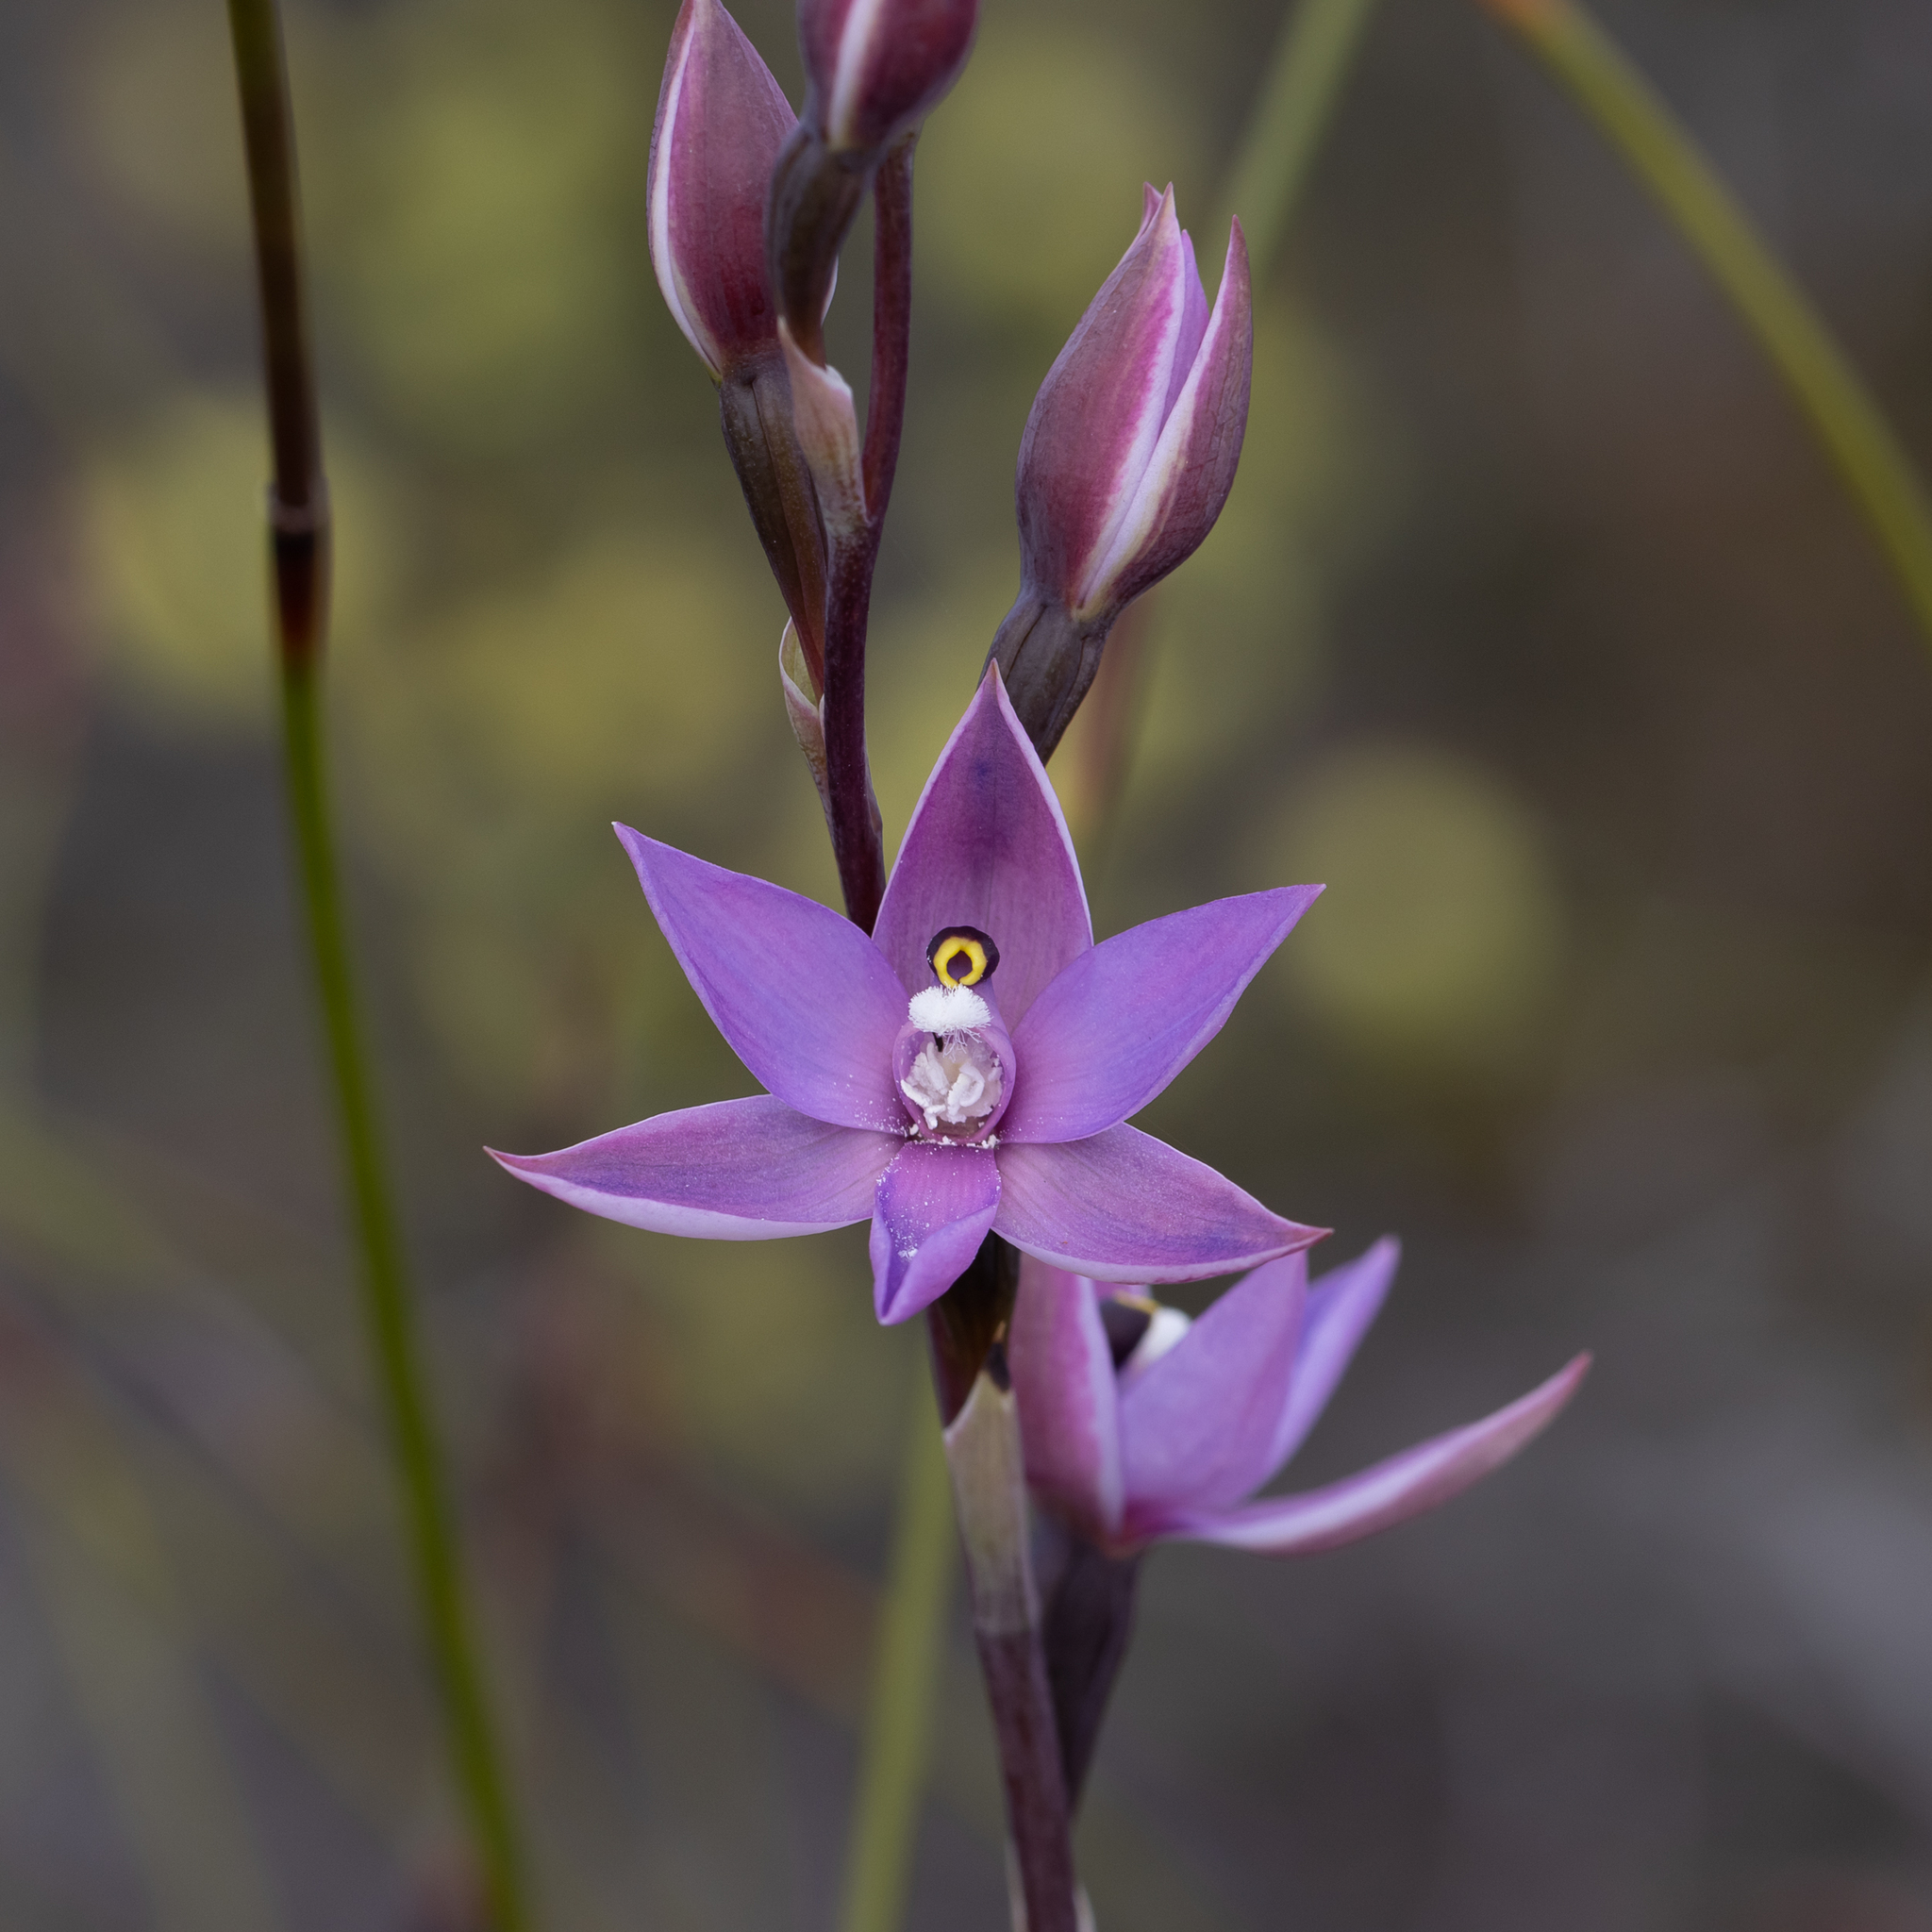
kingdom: Plantae
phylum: Tracheophyta
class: Liliopsida
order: Asparagales
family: Orchidaceae
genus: Thelymitra
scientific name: Thelymitra paludosa
